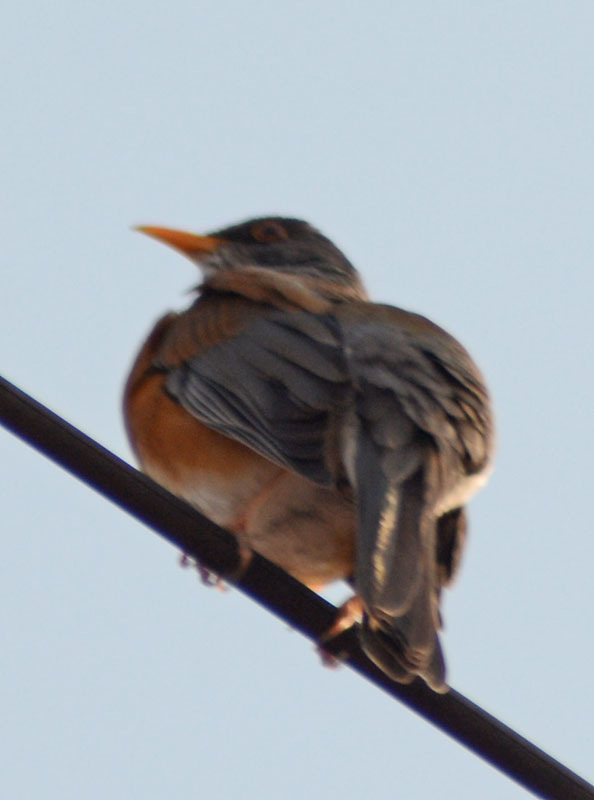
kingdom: Animalia
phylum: Chordata
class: Aves
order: Passeriformes
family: Turdidae
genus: Turdus
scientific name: Turdus rufopalliatus
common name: Rufous-backed robin
